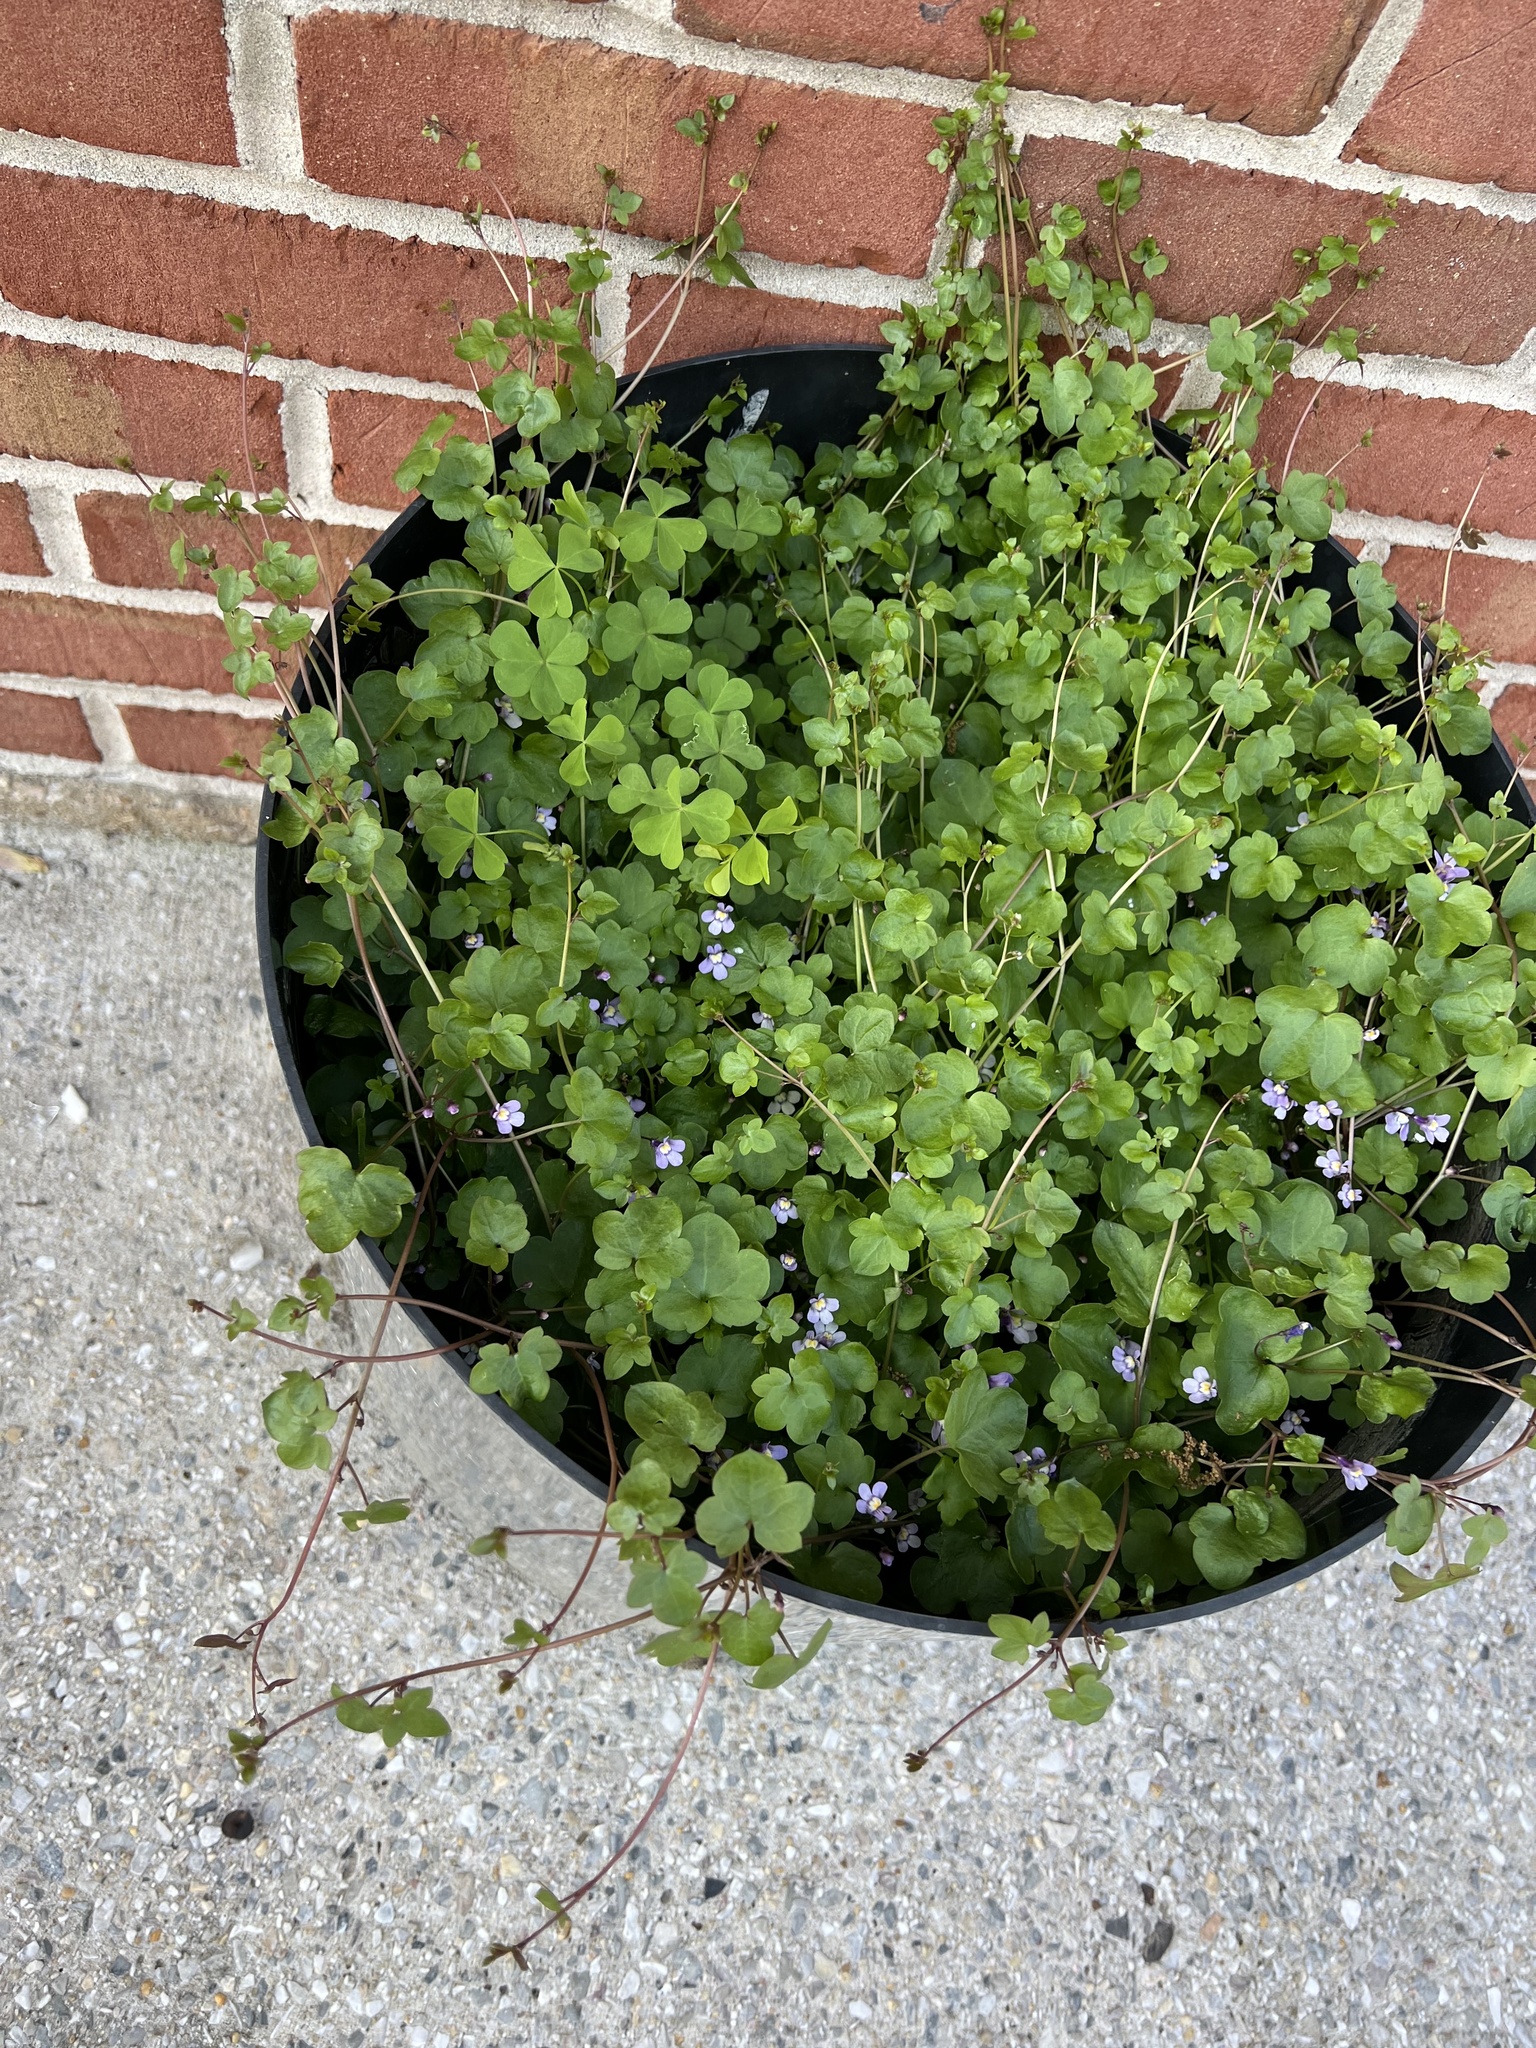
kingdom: Plantae
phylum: Tracheophyta
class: Magnoliopsida
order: Lamiales
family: Plantaginaceae
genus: Cymbalaria
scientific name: Cymbalaria muralis
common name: Ivy-leaved toadflax
